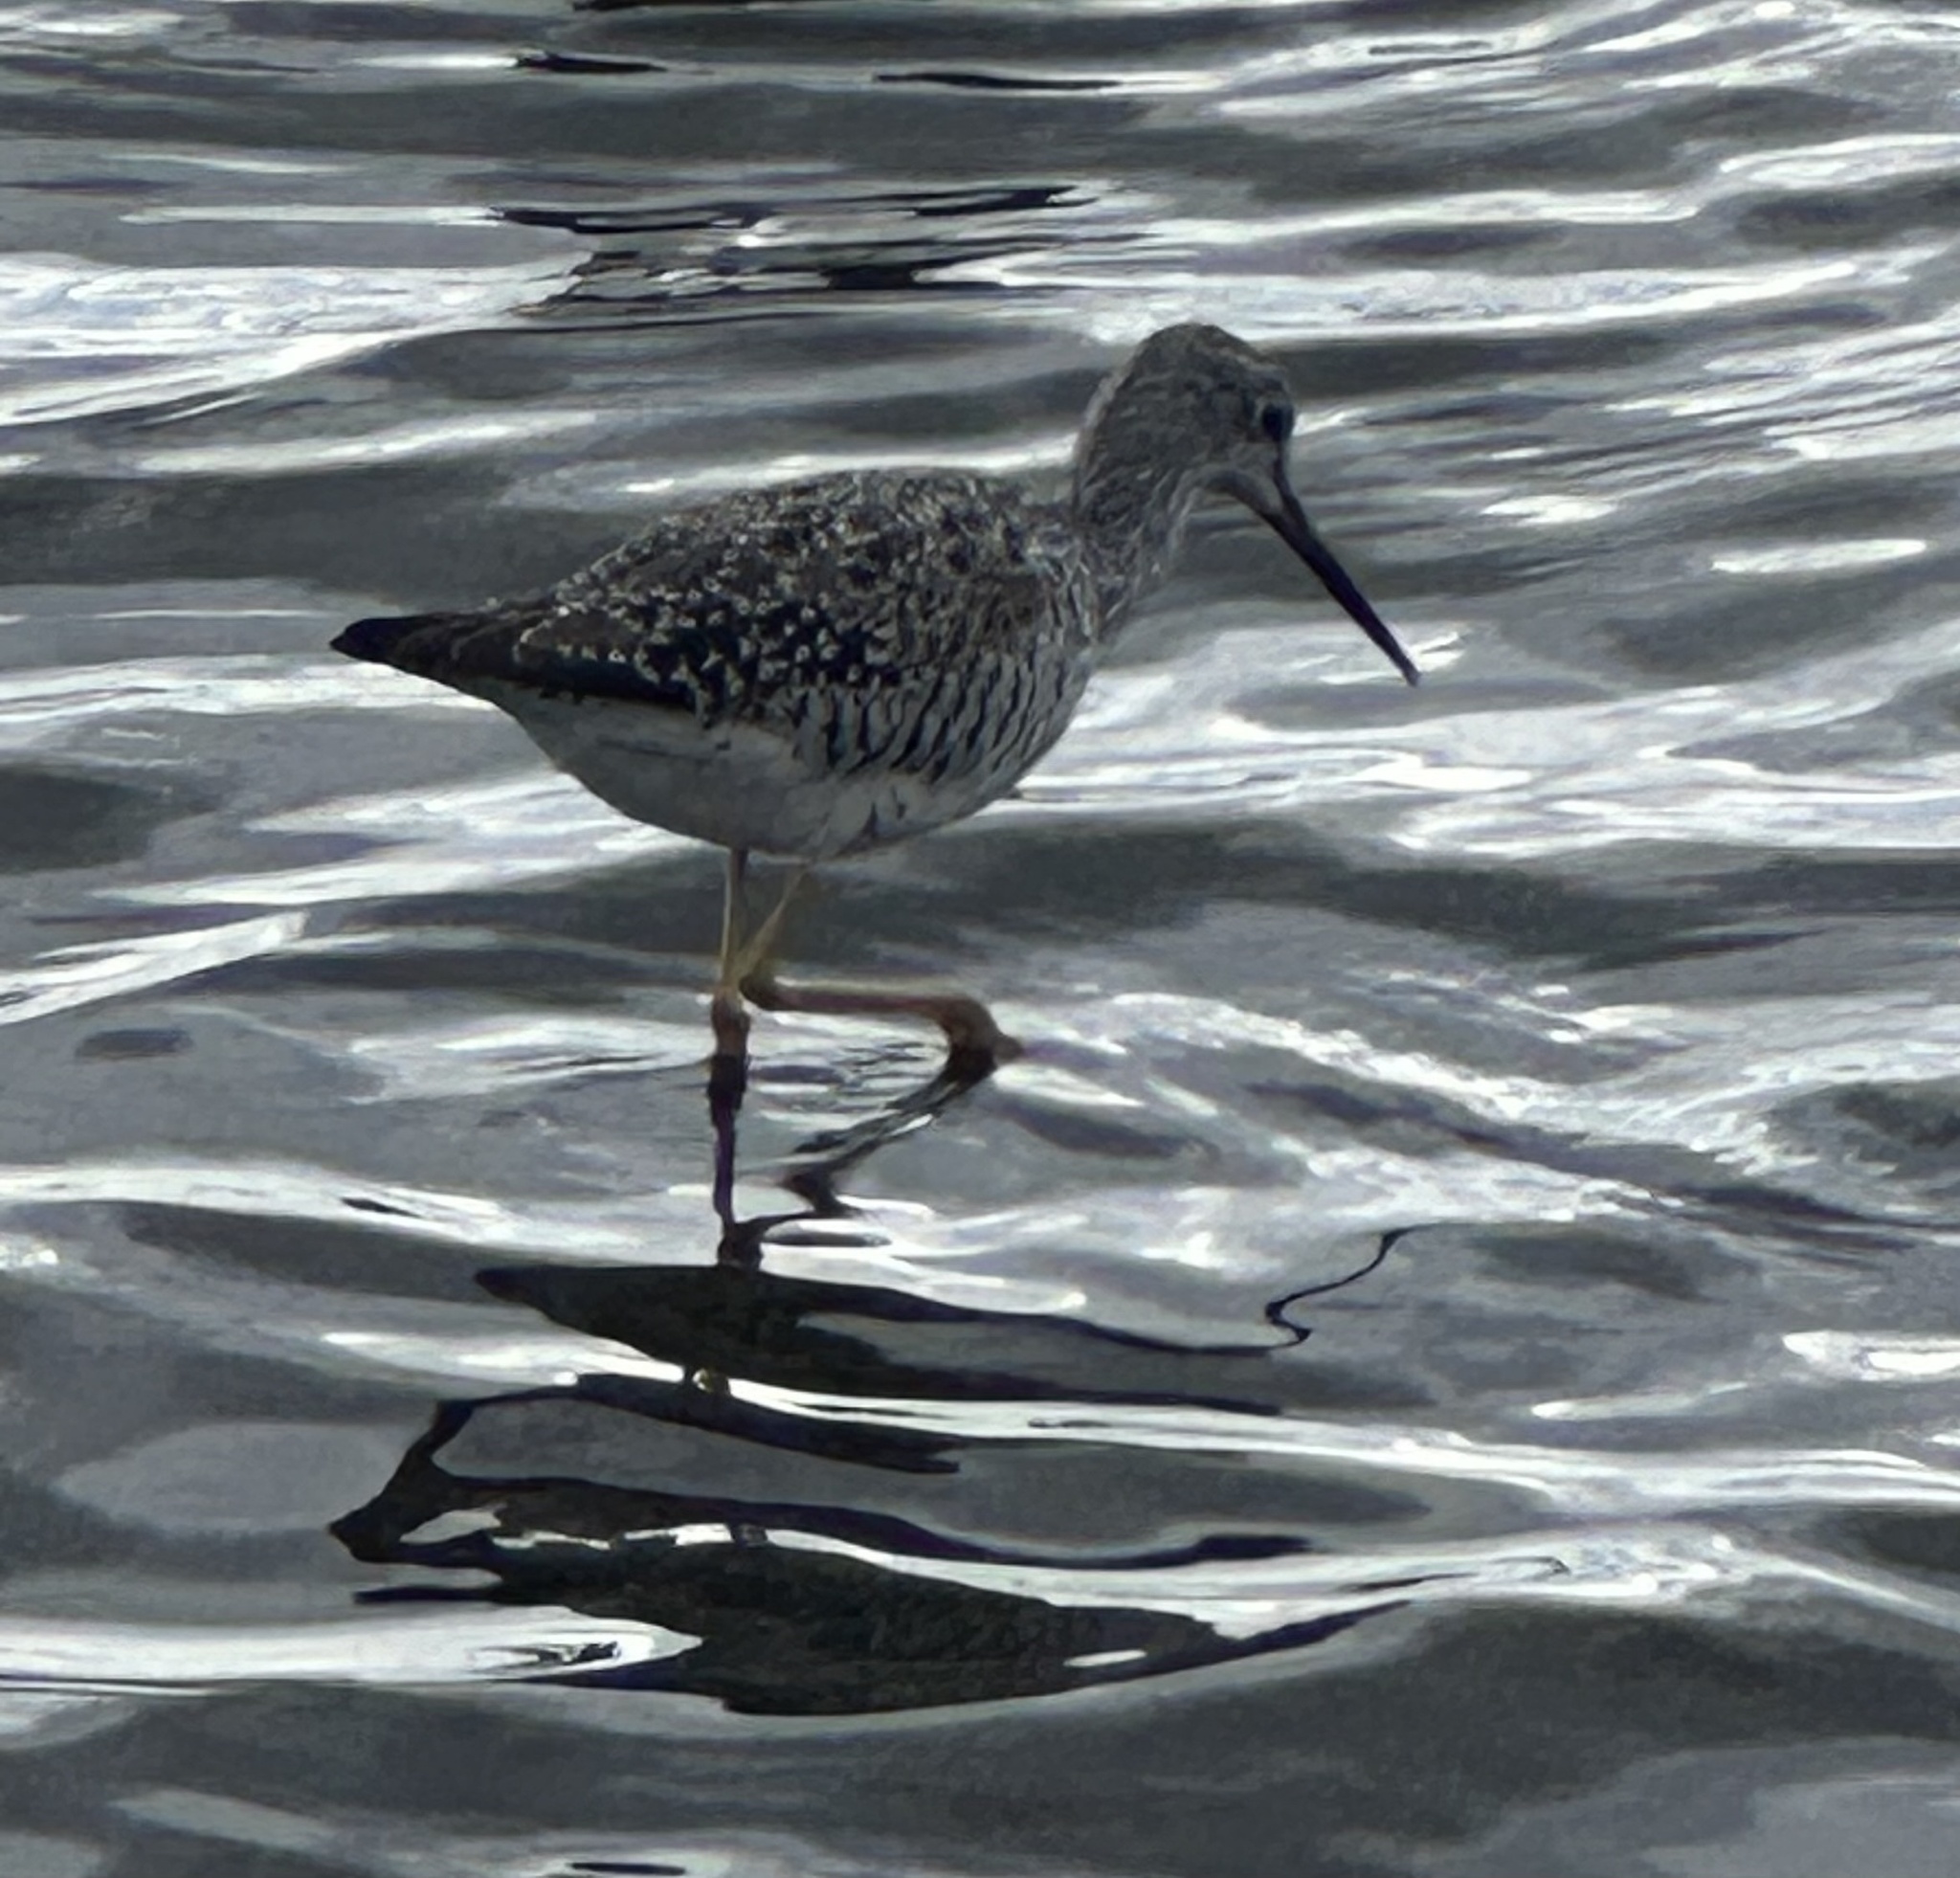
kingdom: Animalia
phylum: Chordata
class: Aves
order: Charadriiformes
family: Scolopacidae
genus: Tringa
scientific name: Tringa melanoleuca
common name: Greater yellowlegs
